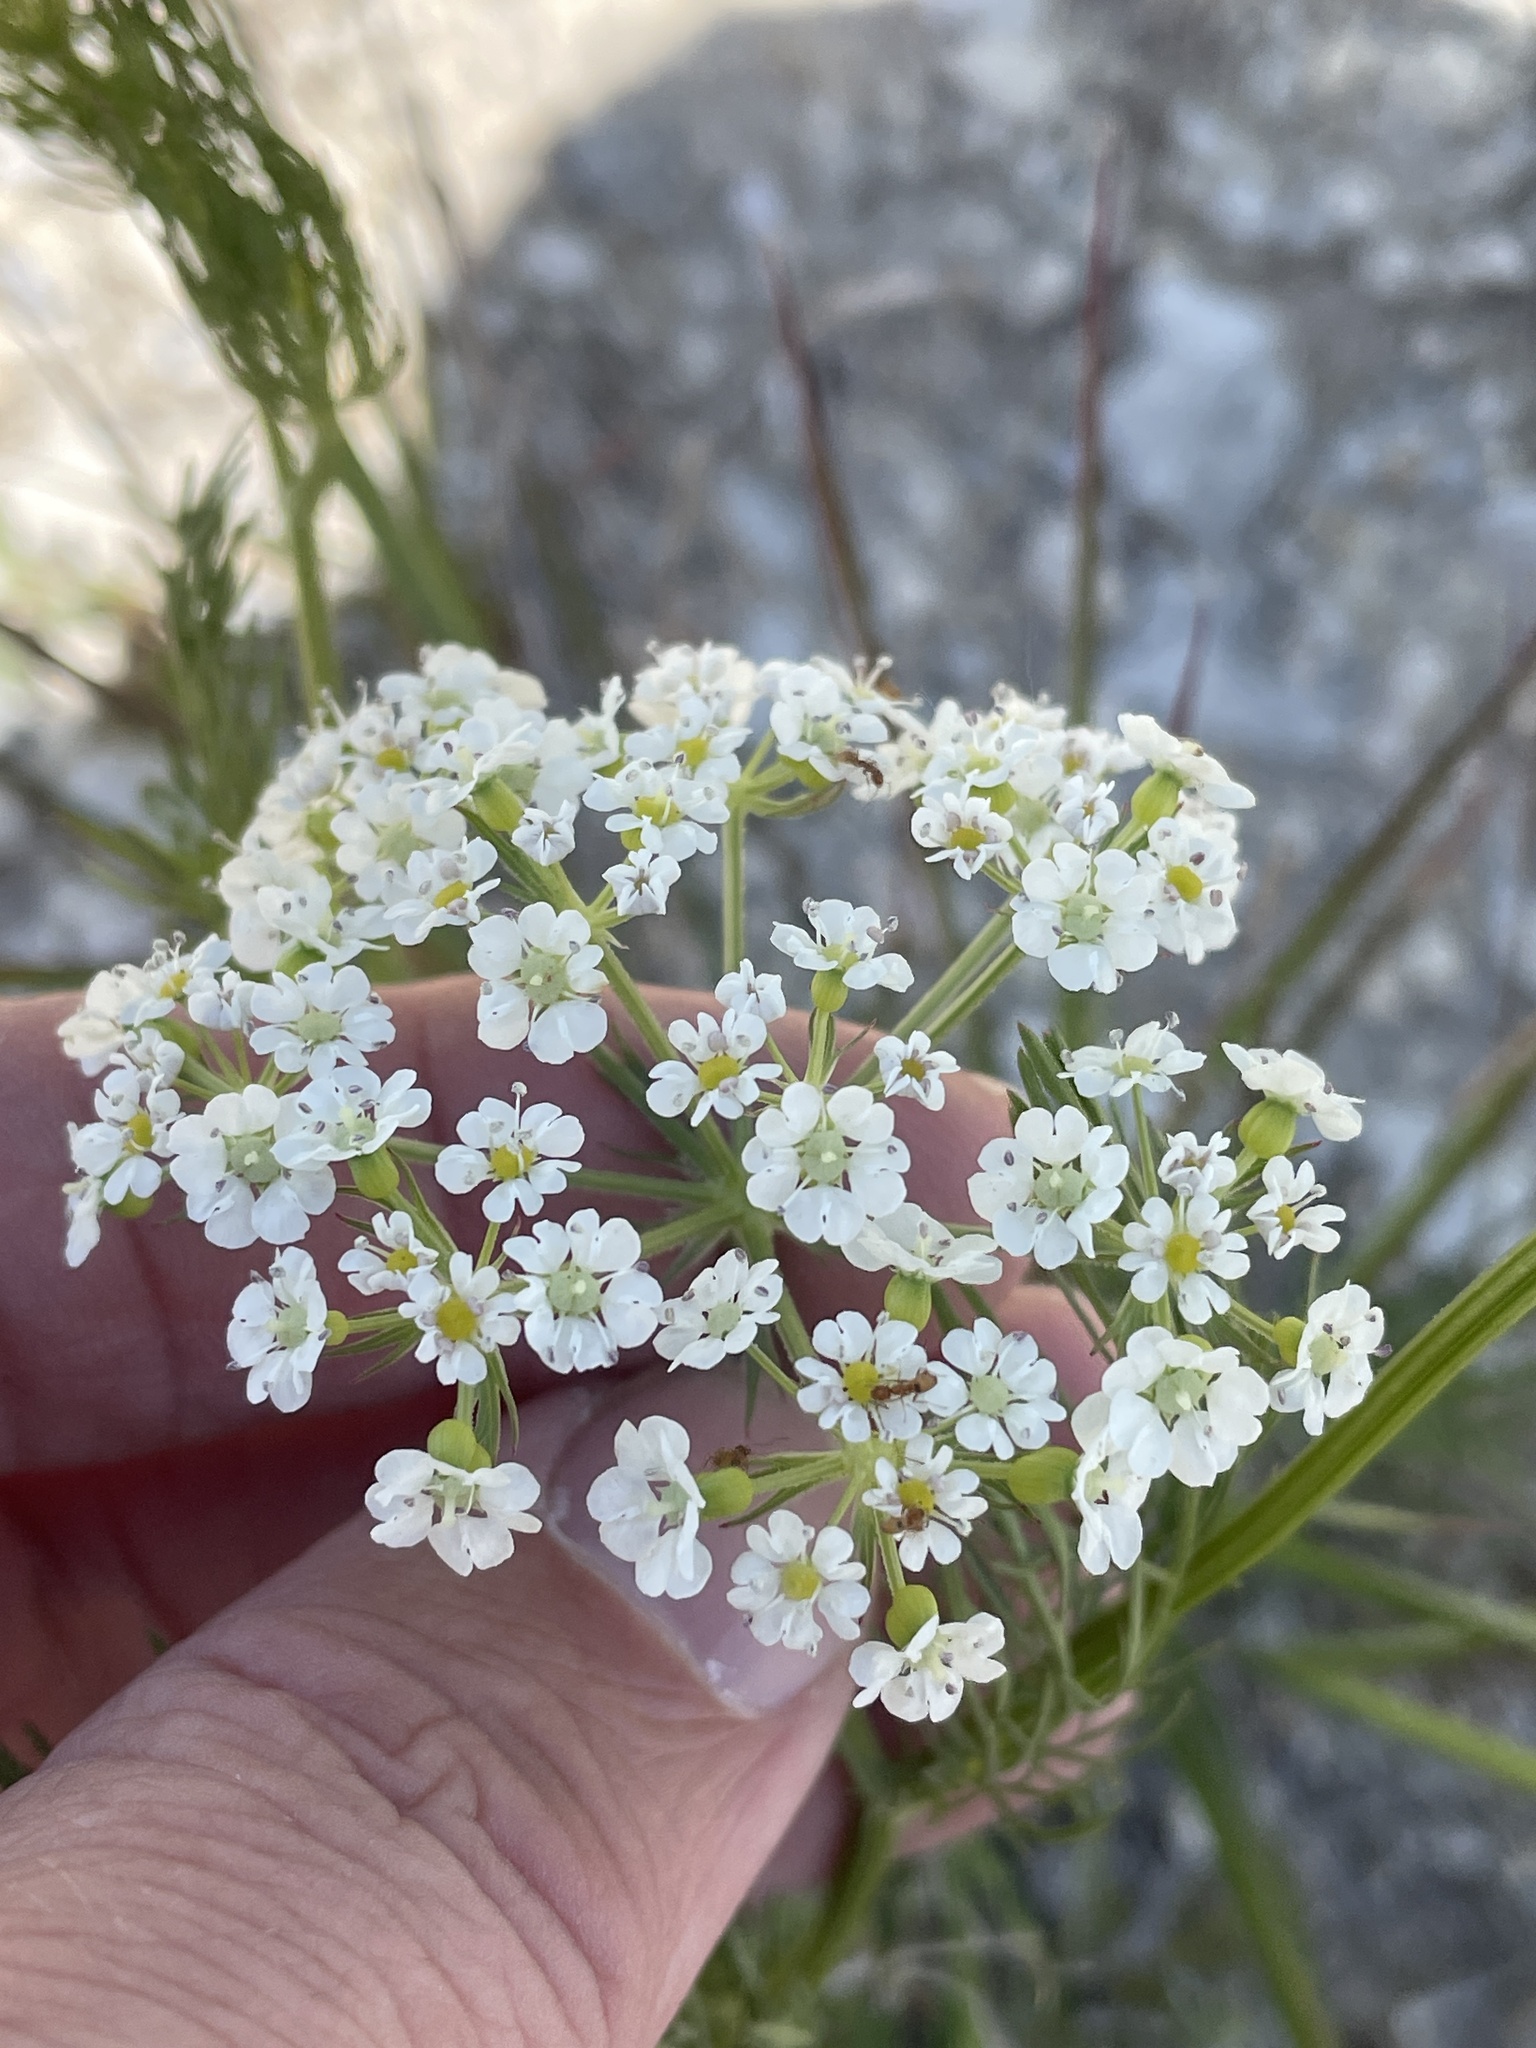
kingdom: Plantae
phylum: Tracheophyta
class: Magnoliopsida
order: Apiales
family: Apiaceae
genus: Atrema
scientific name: Atrema americanum
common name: Prairie-bishop
